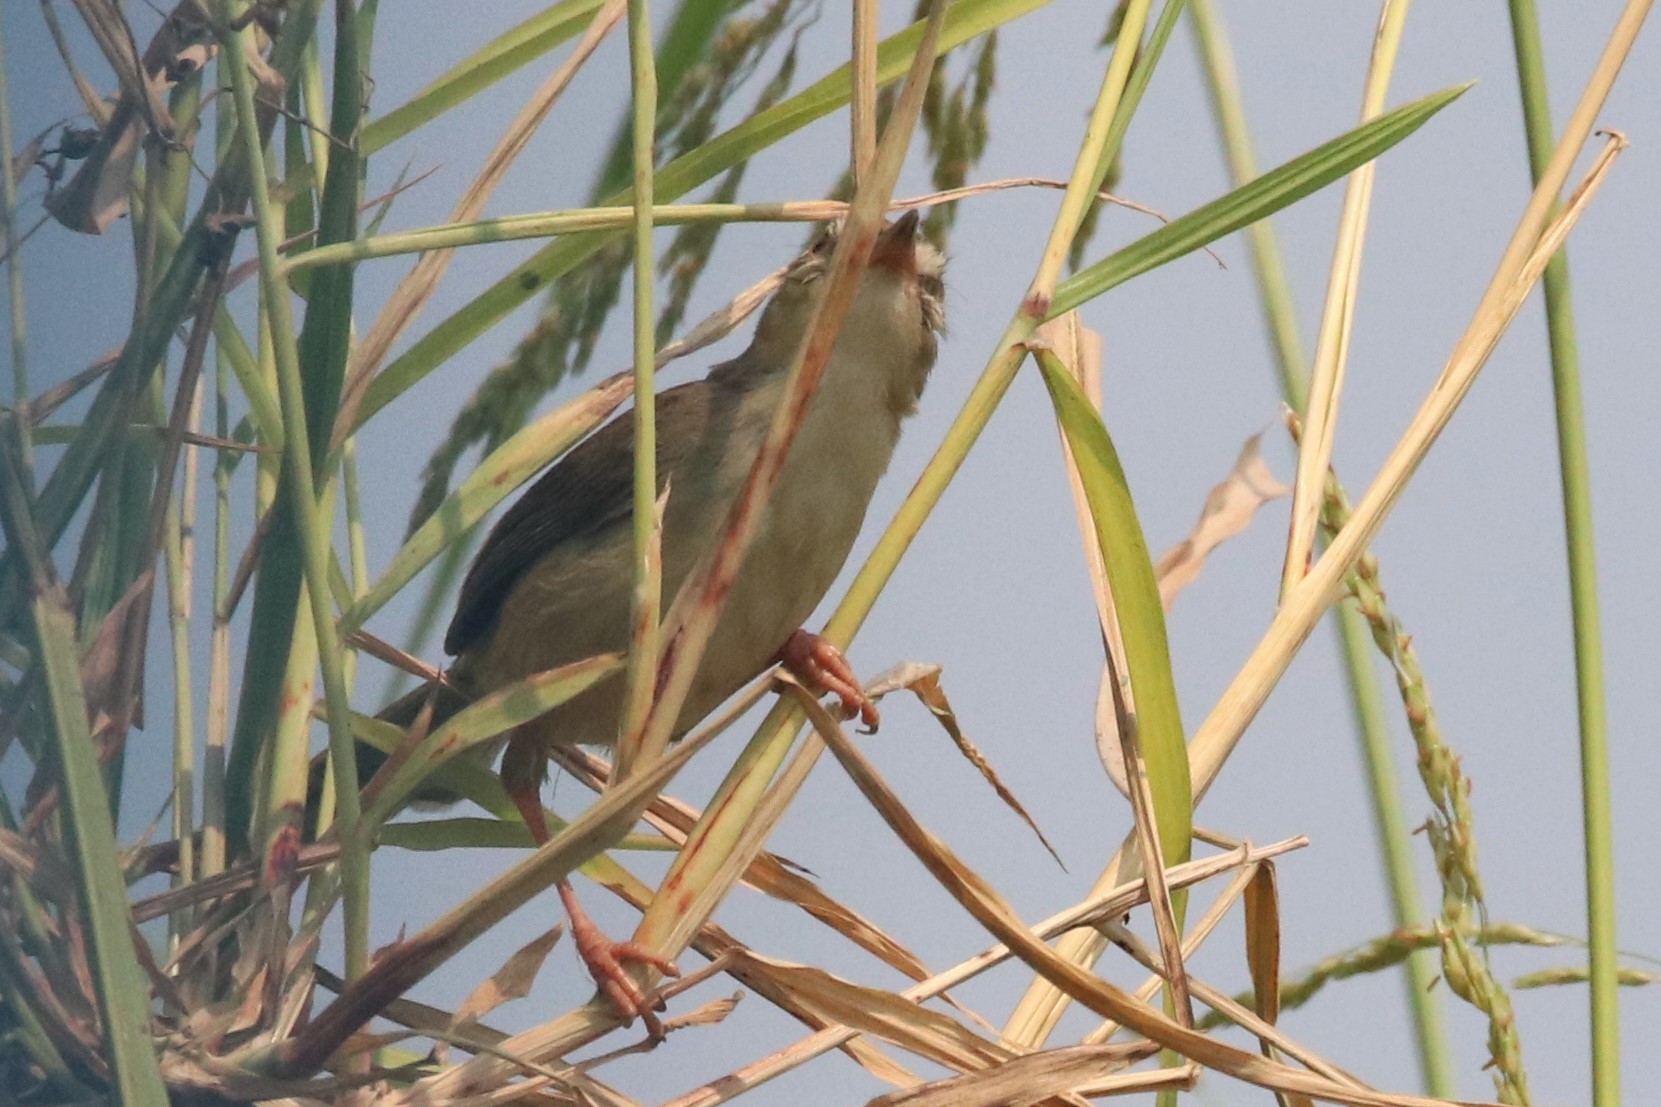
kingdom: Animalia
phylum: Chordata
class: Aves
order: Passeriformes
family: Cisticolidae
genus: Prinia
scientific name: Prinia inornata
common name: Plain prinia
